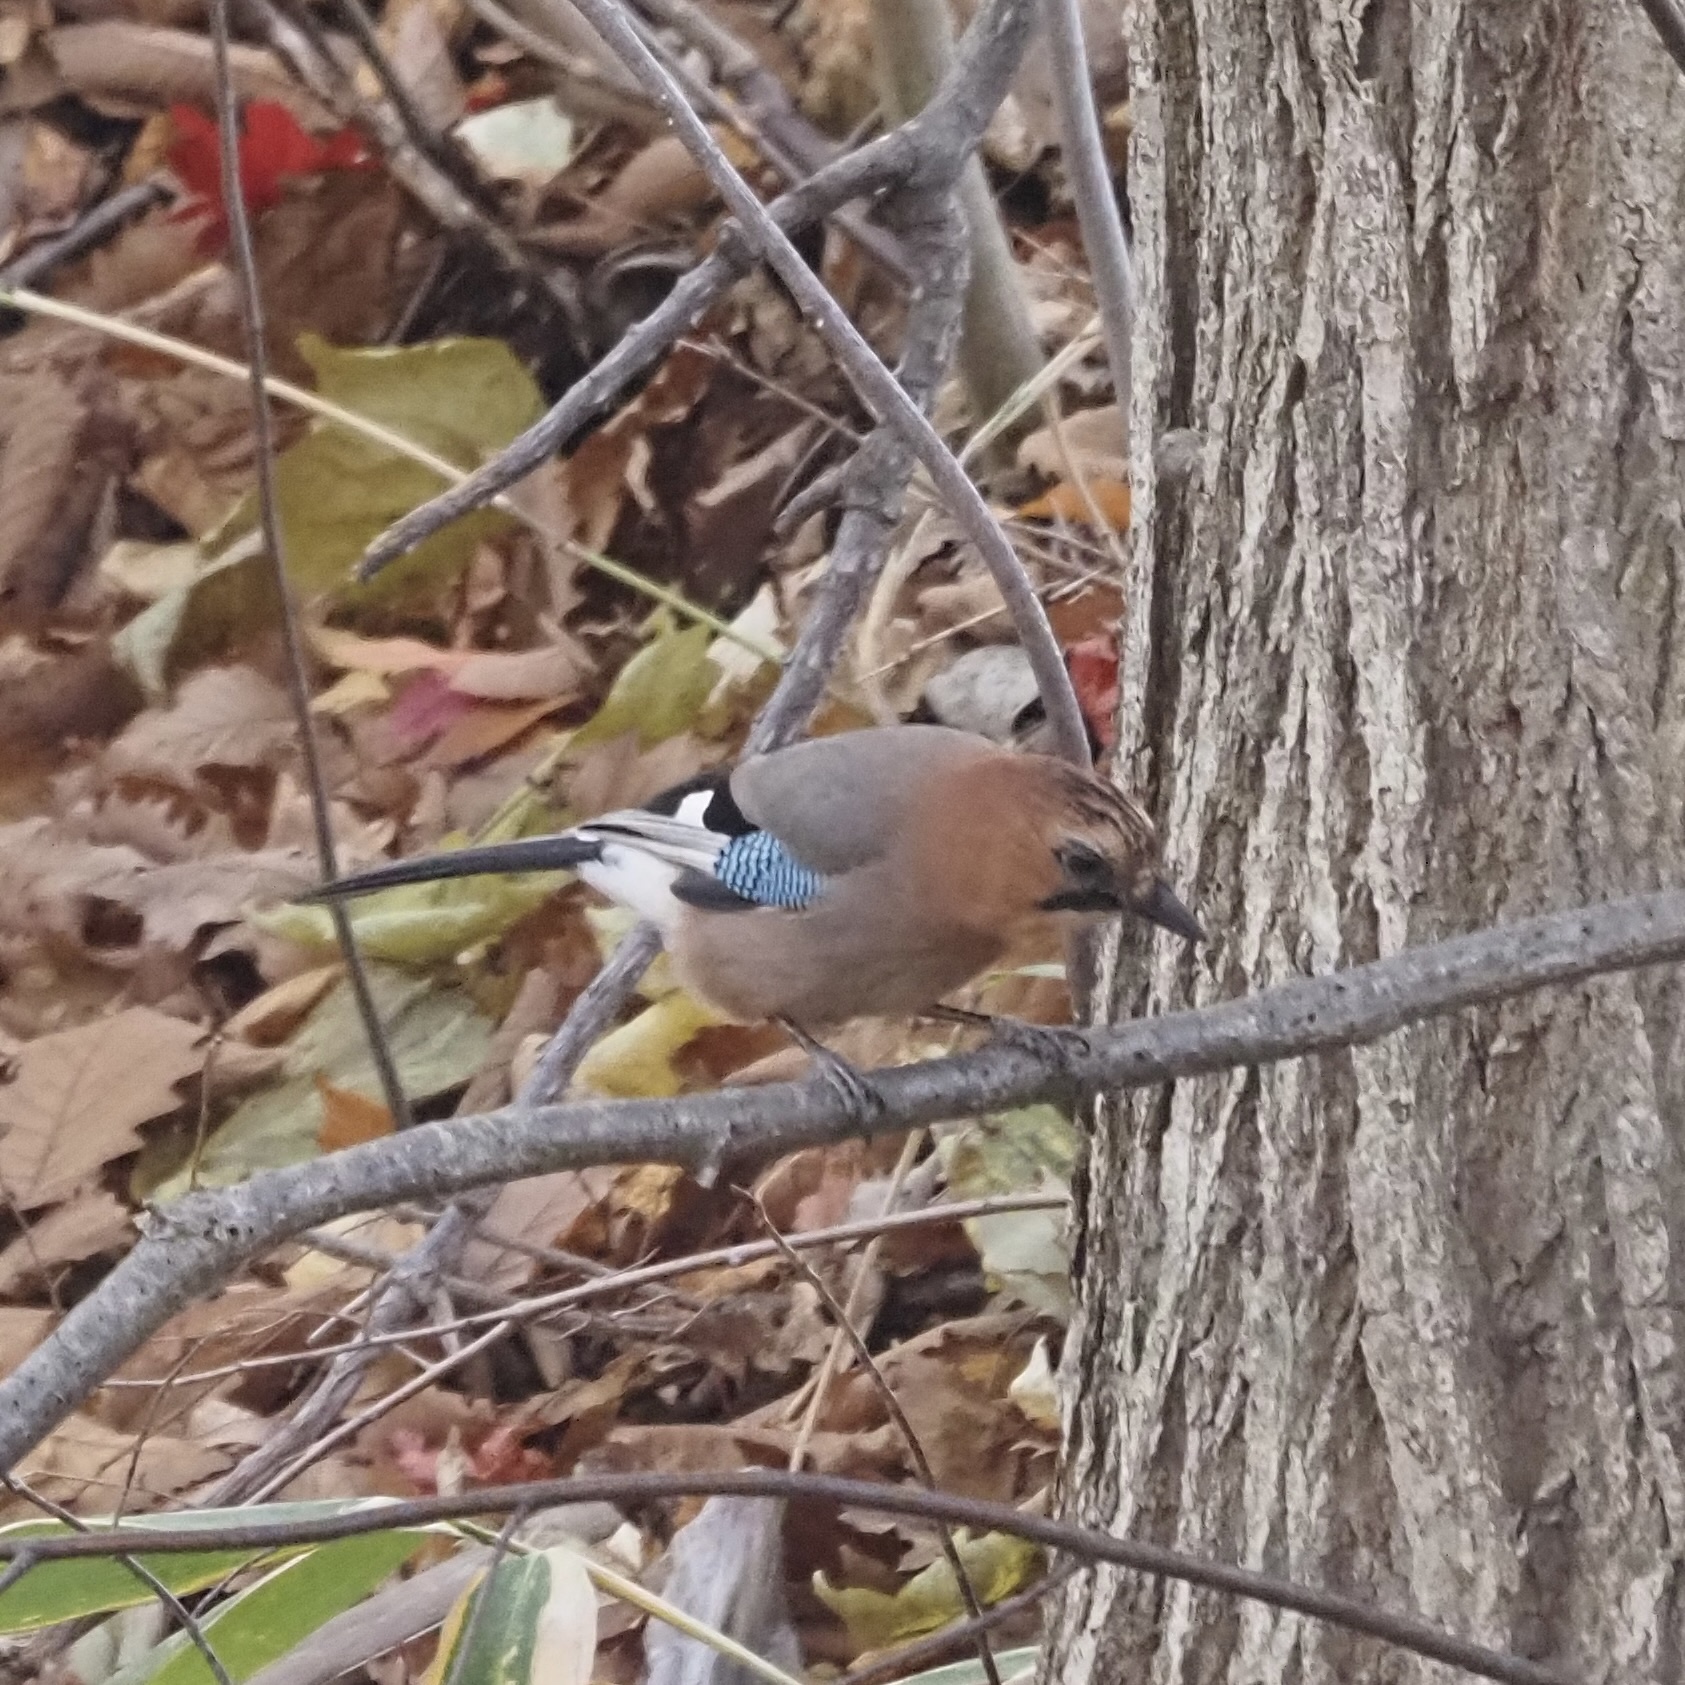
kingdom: Animalia
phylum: Chordata
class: Aves
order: Passeriformes
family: Corvidae
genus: Garrulus
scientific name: Garrulus glandarius
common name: Eurasian jay
